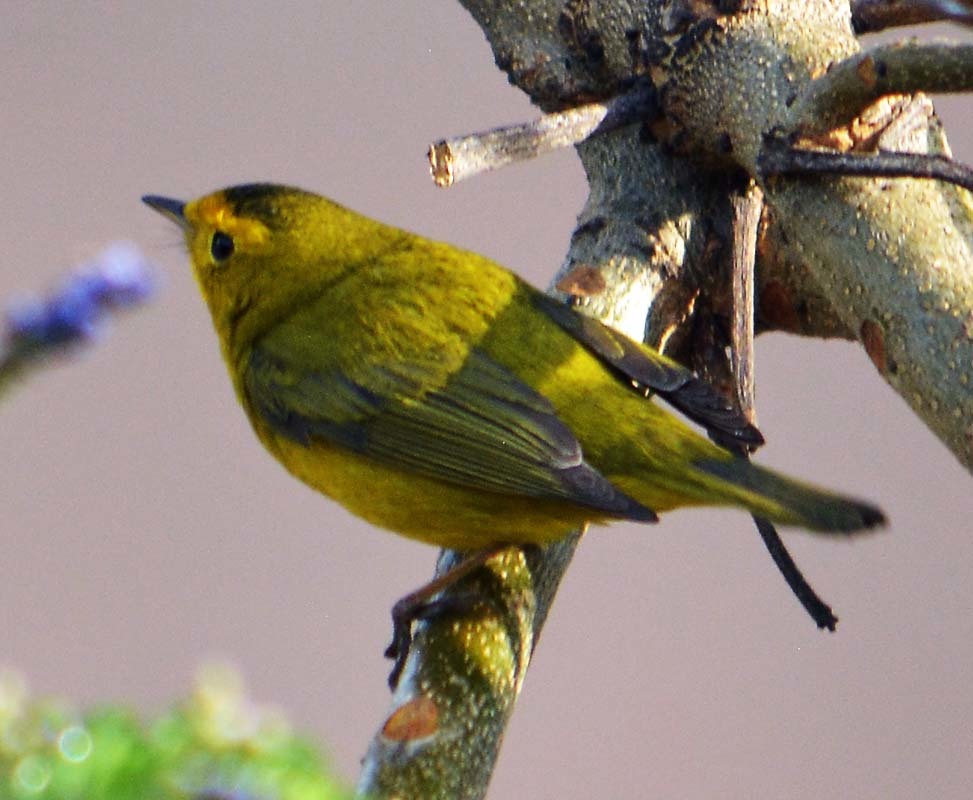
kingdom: Animalia
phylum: Chordata
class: Aves
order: Passeriformes
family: Parulidae
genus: Cardellina
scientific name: Cardellina pusilla
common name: Wilson's warbler
